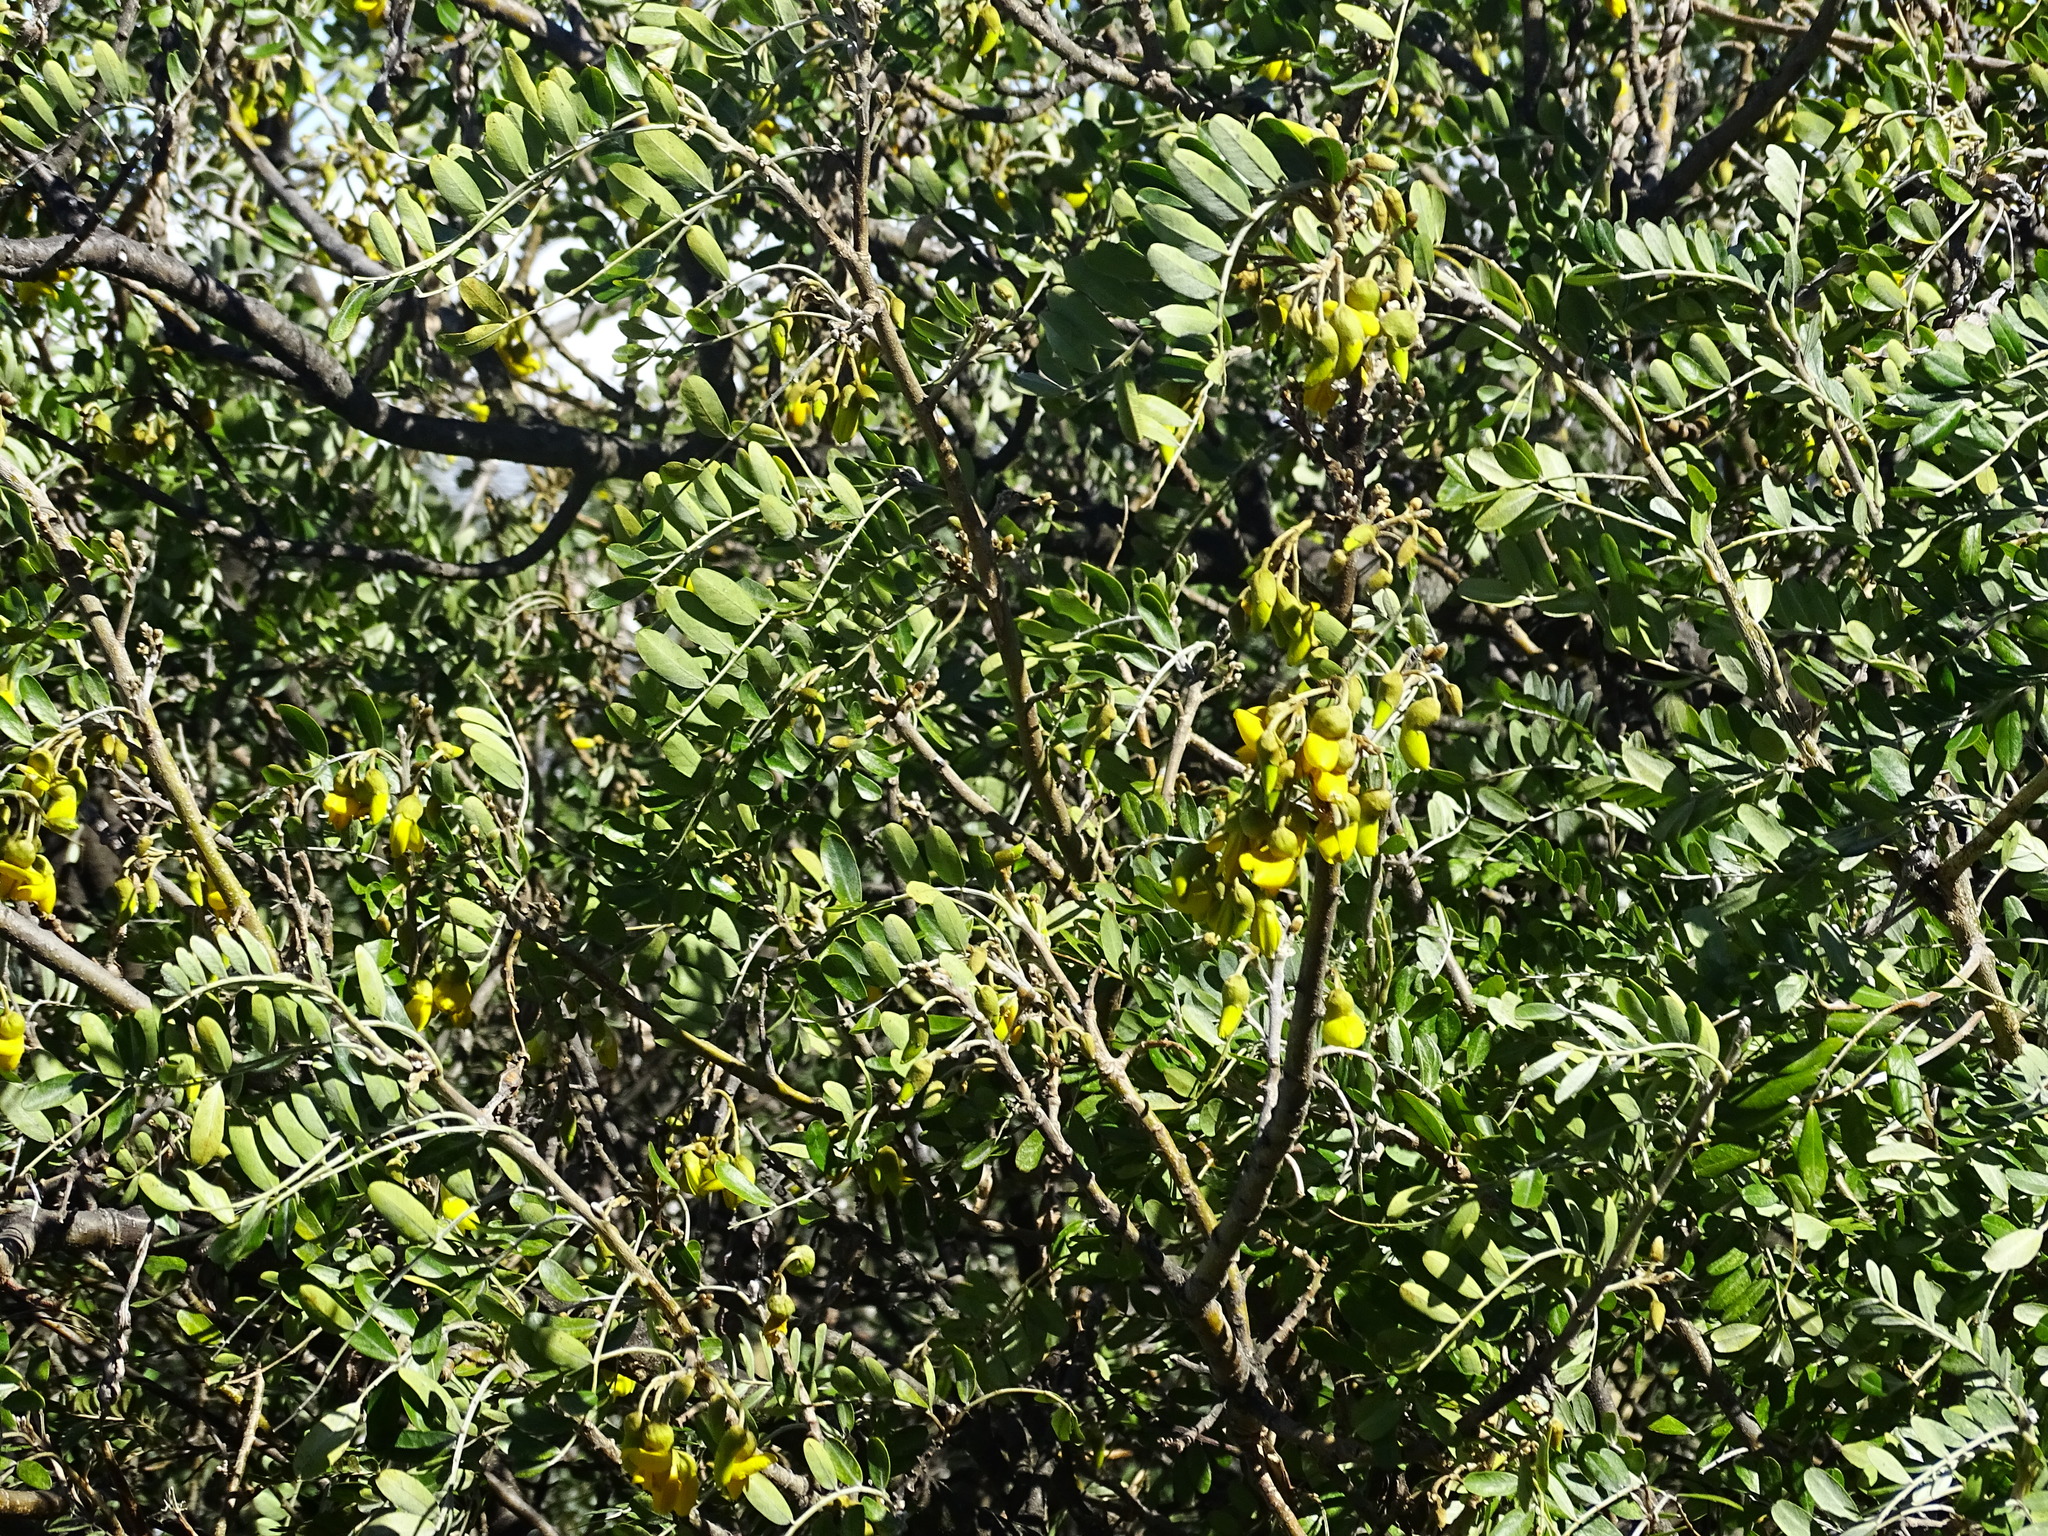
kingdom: Plantae
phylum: Tracheophyta
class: Magnoliopsida
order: Fabales
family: Fabaceae
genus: Sophora
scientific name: Sophora chrysophylla
